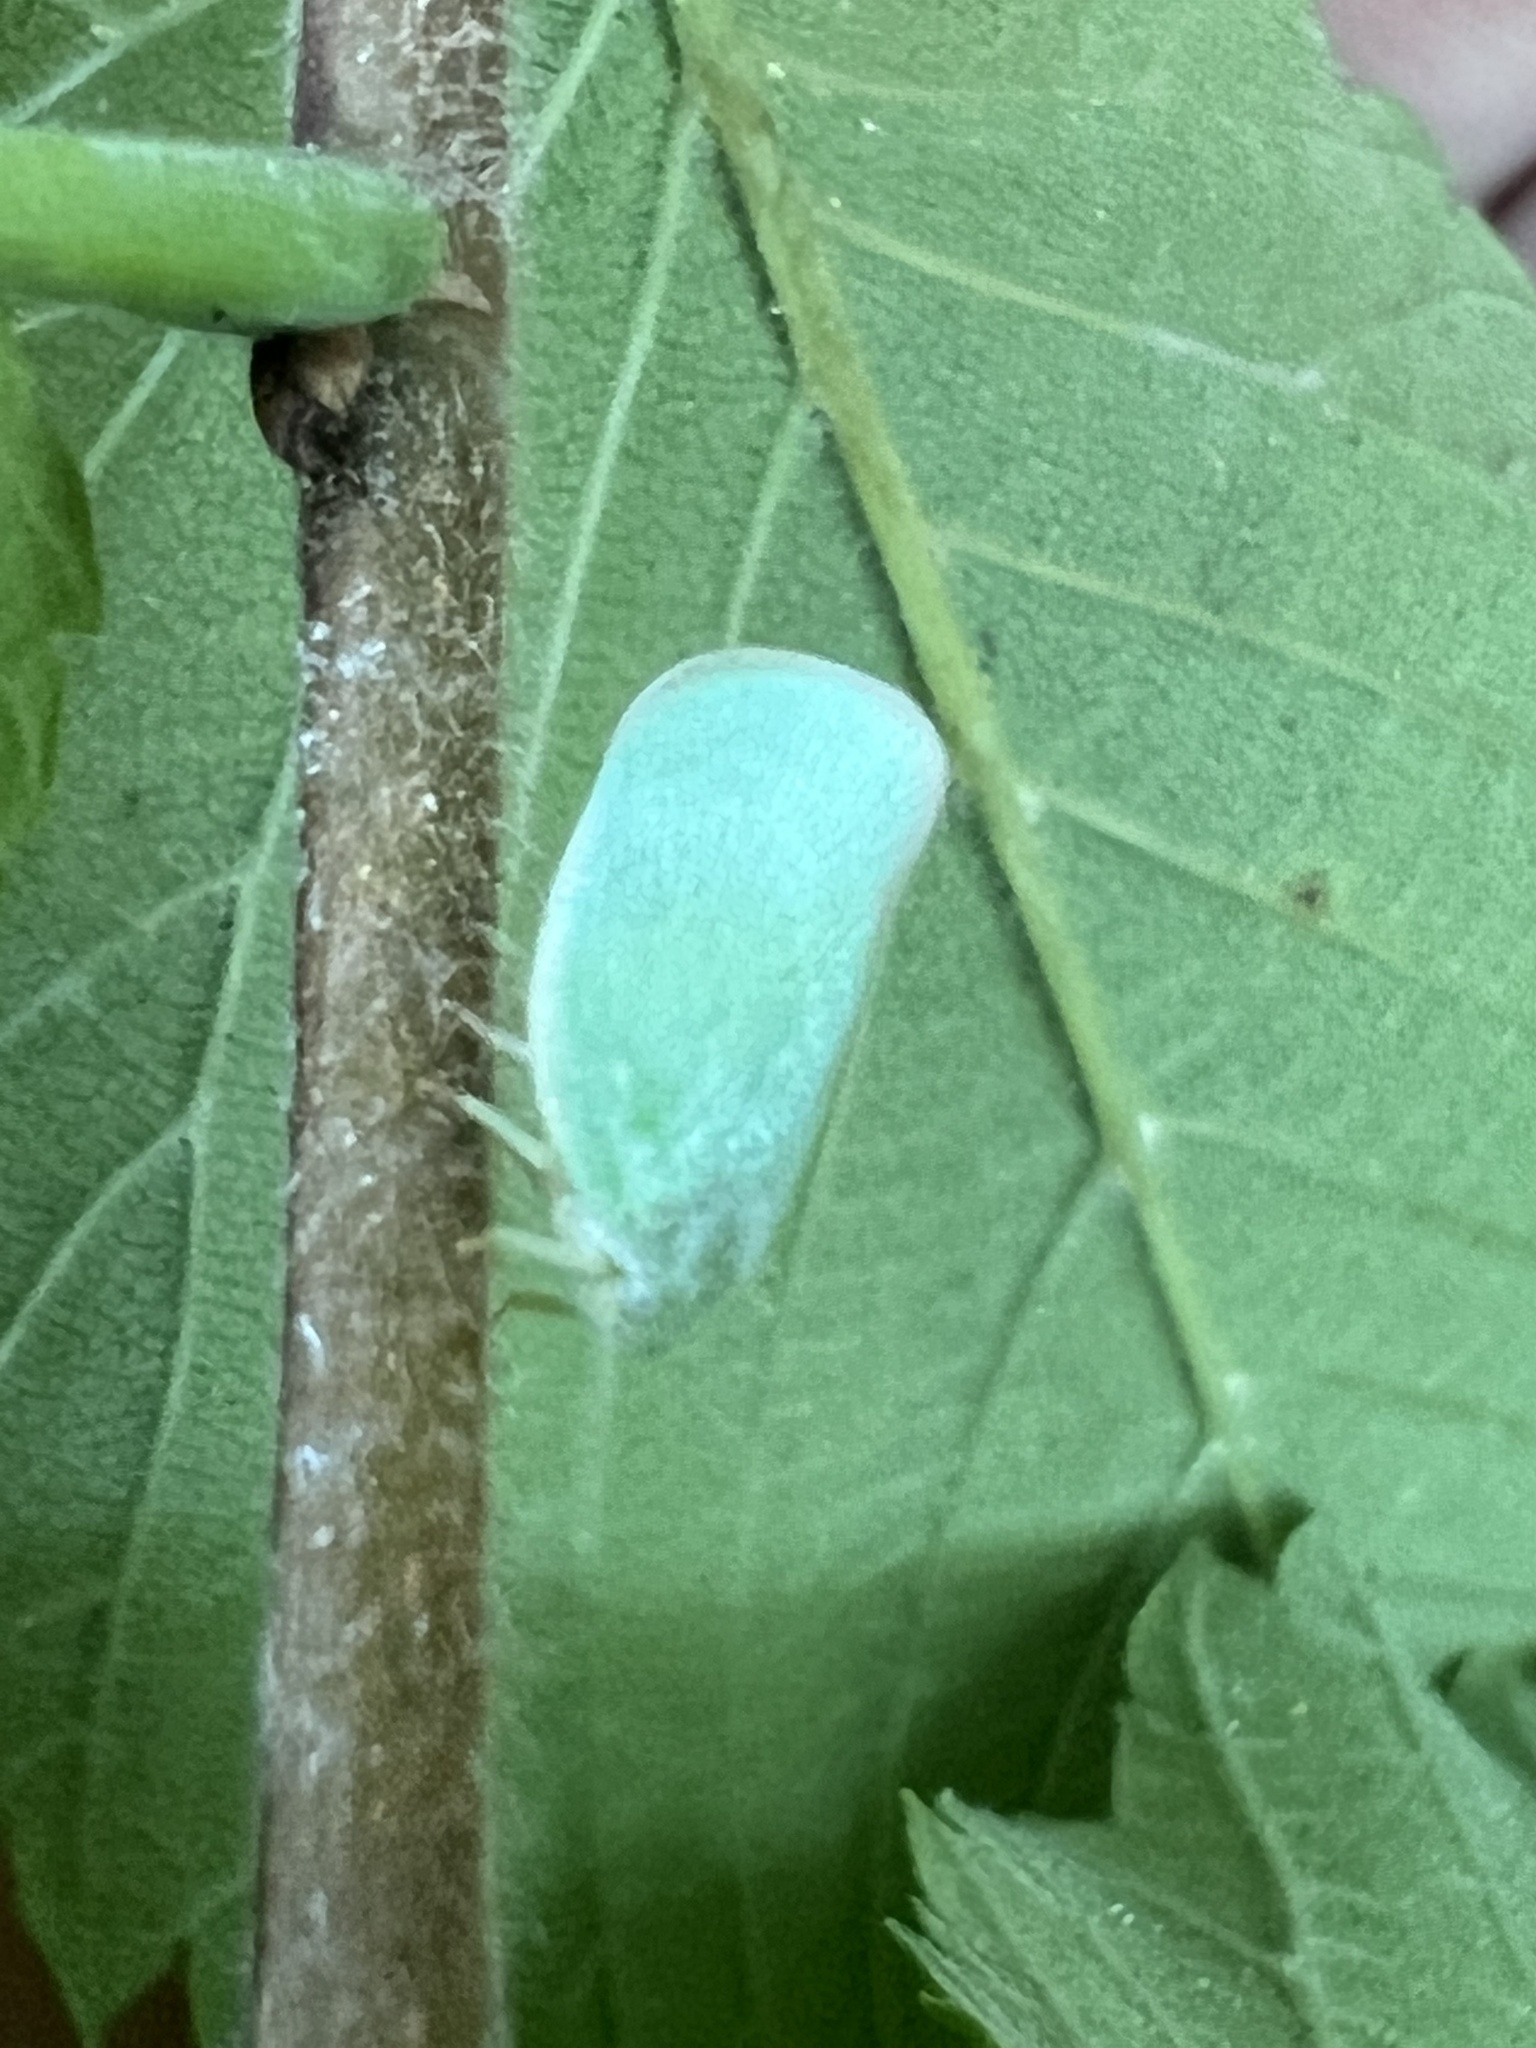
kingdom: Animalia
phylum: Arthropoda
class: Insecta
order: Hemiptera
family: Flatidae
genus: Ormenoides
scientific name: Ormenoides venusta
